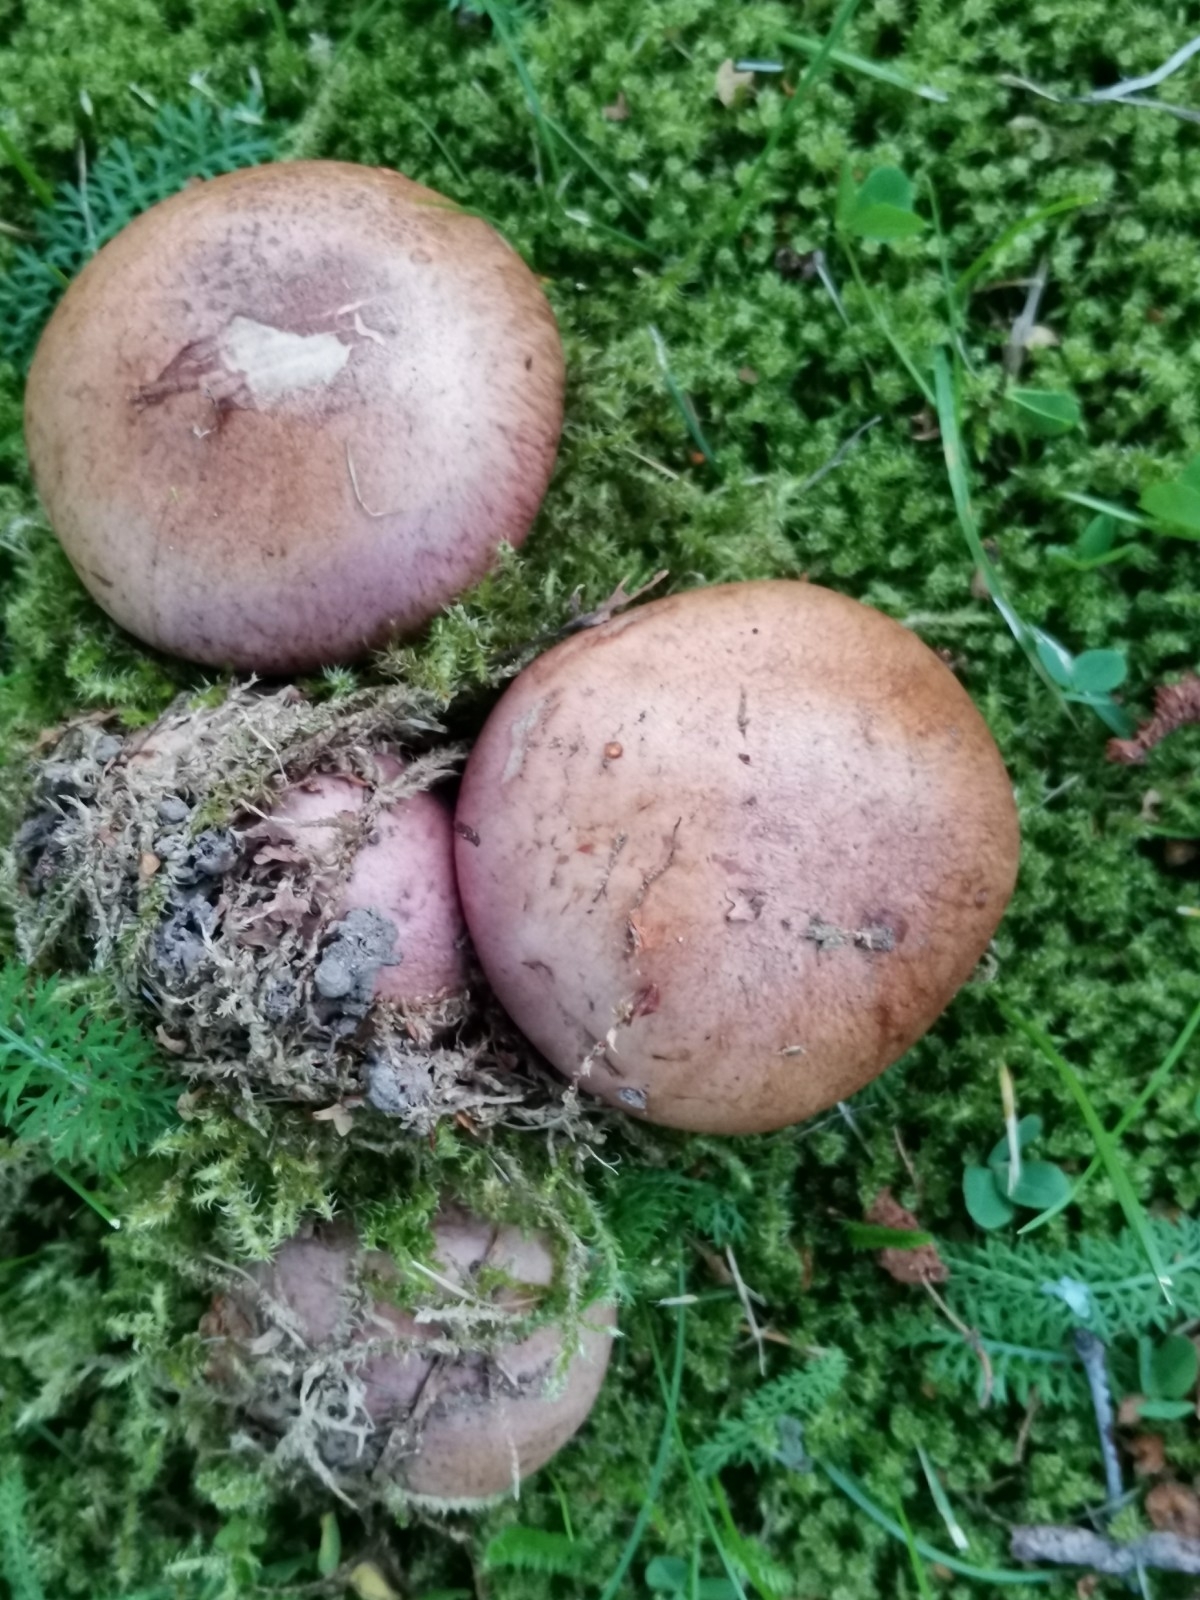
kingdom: Fungi
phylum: Basidiomycota
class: Agaricomycetes
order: Agaricales
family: Cortinariaceae
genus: Phlegmacium
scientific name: Phlegmacium balteatum
